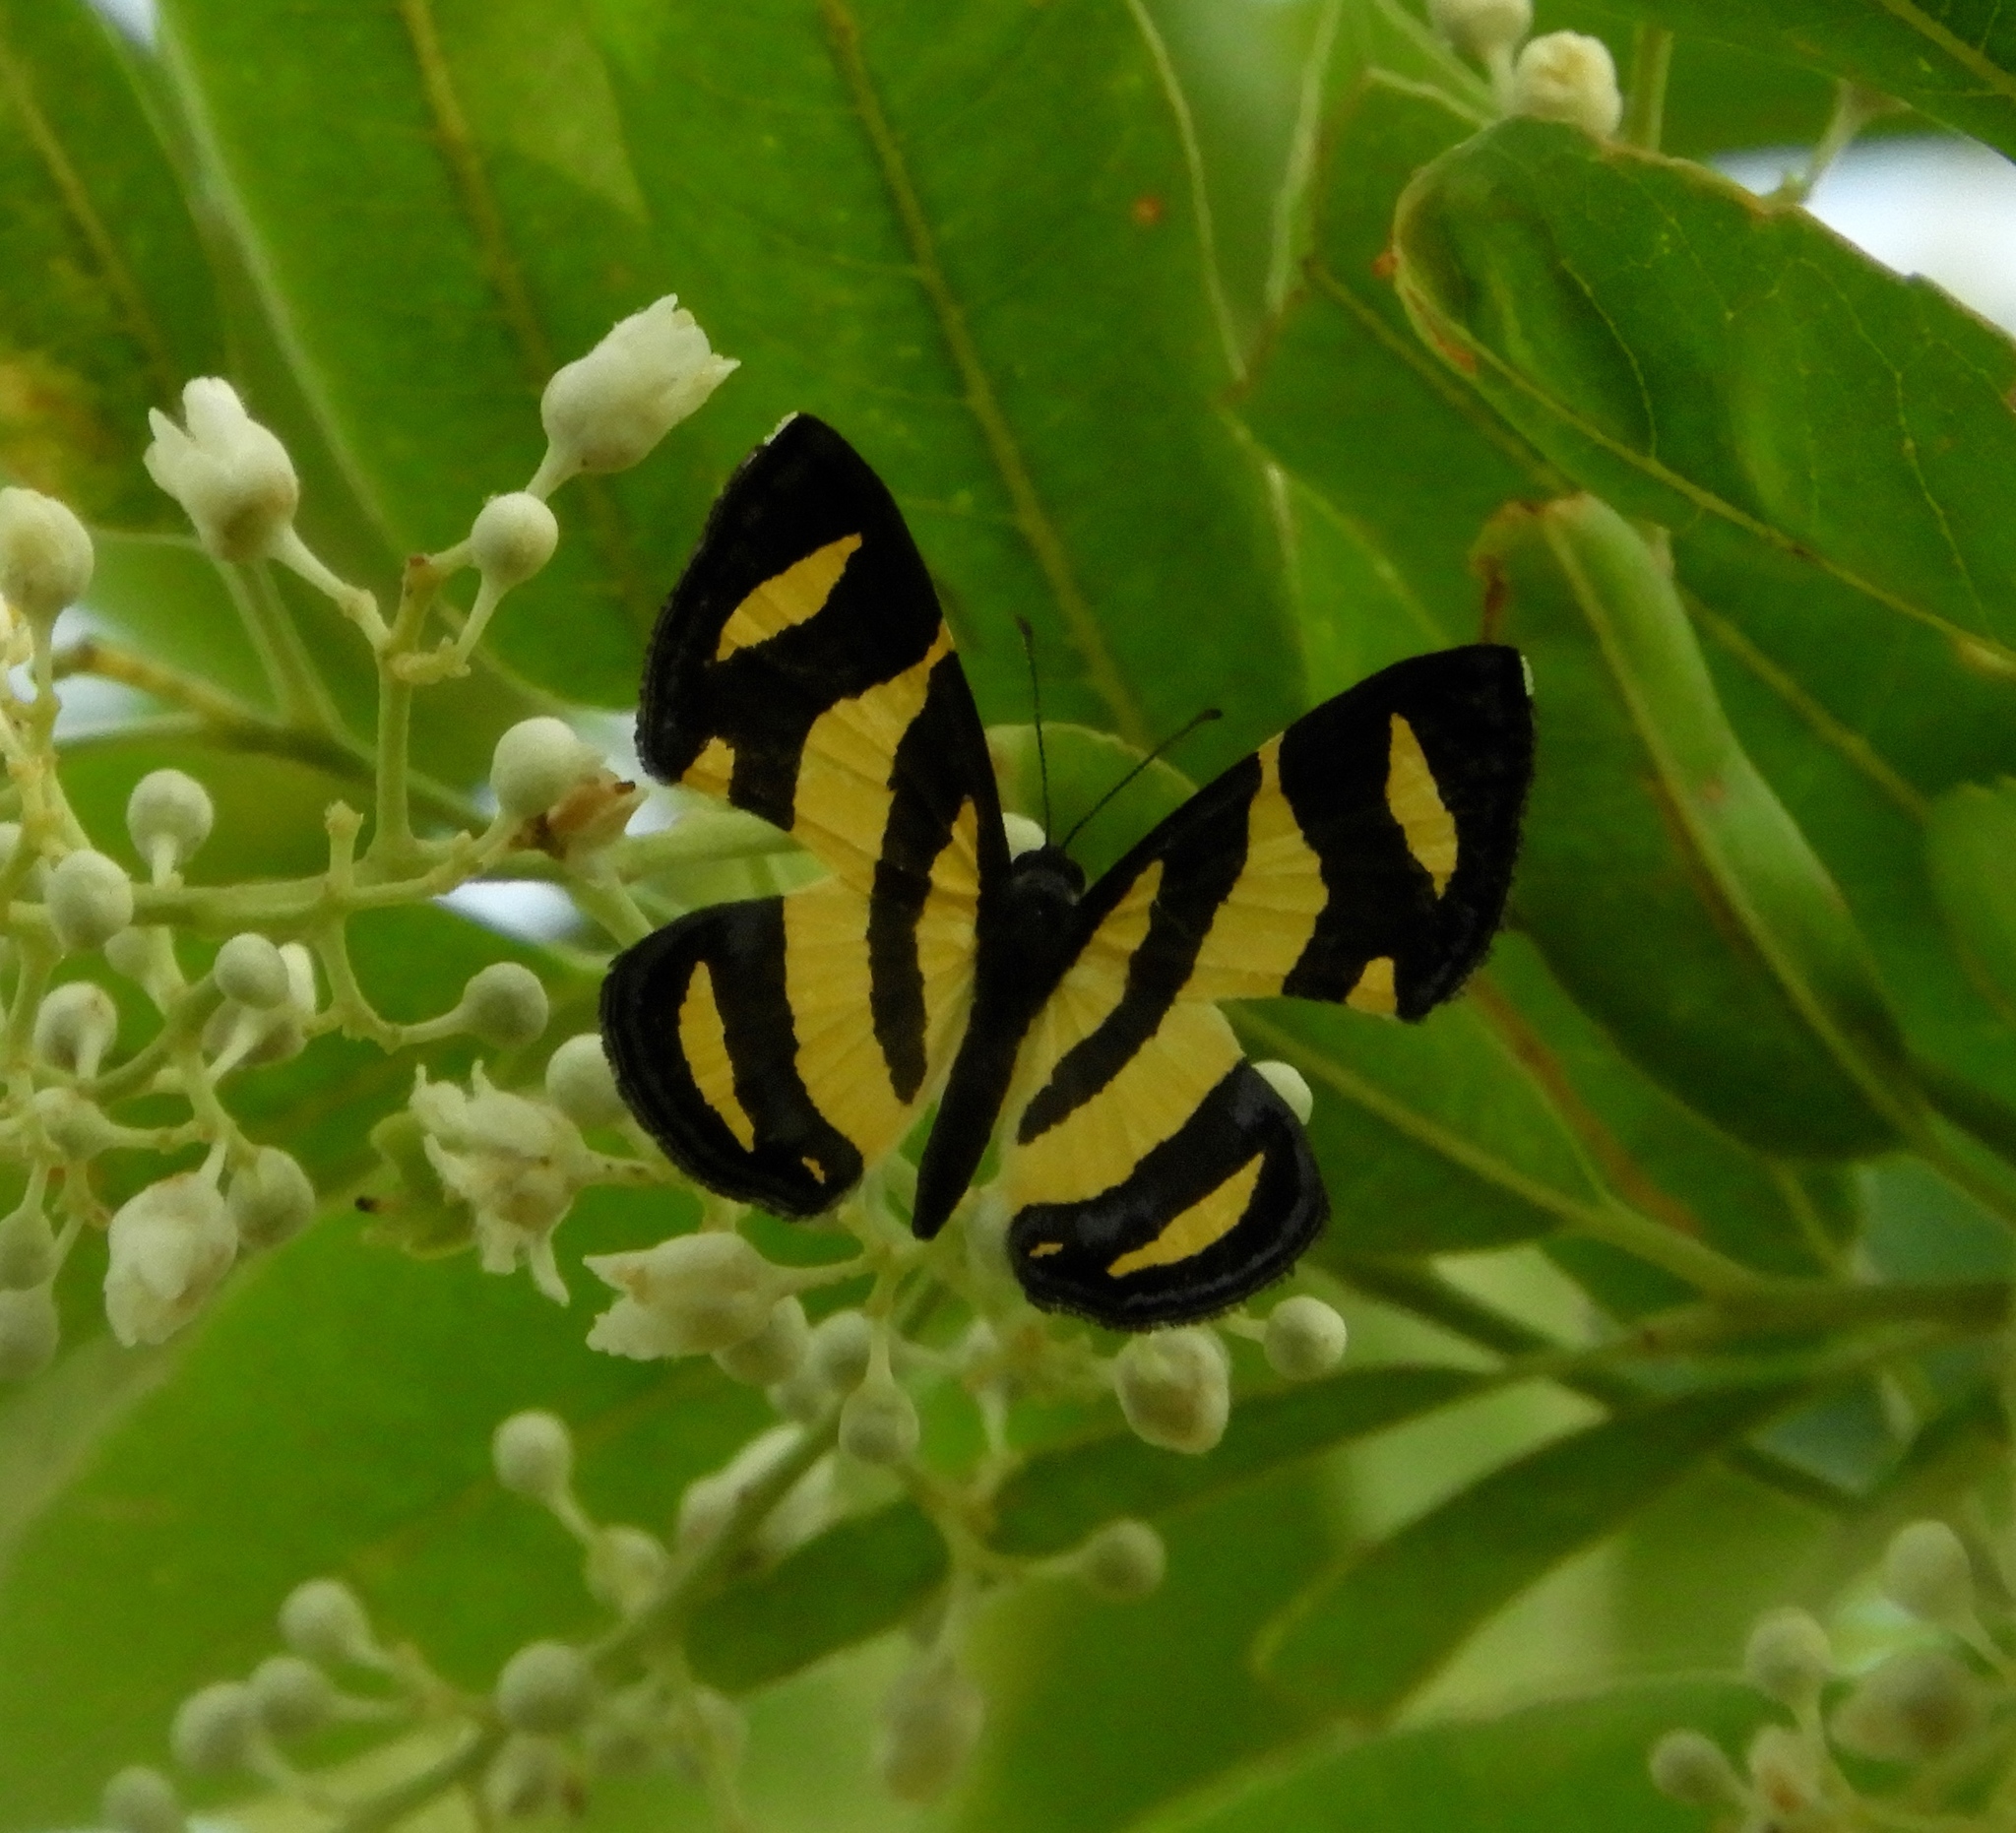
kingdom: Animalia
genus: Baeotis
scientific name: Baeotis zonata
